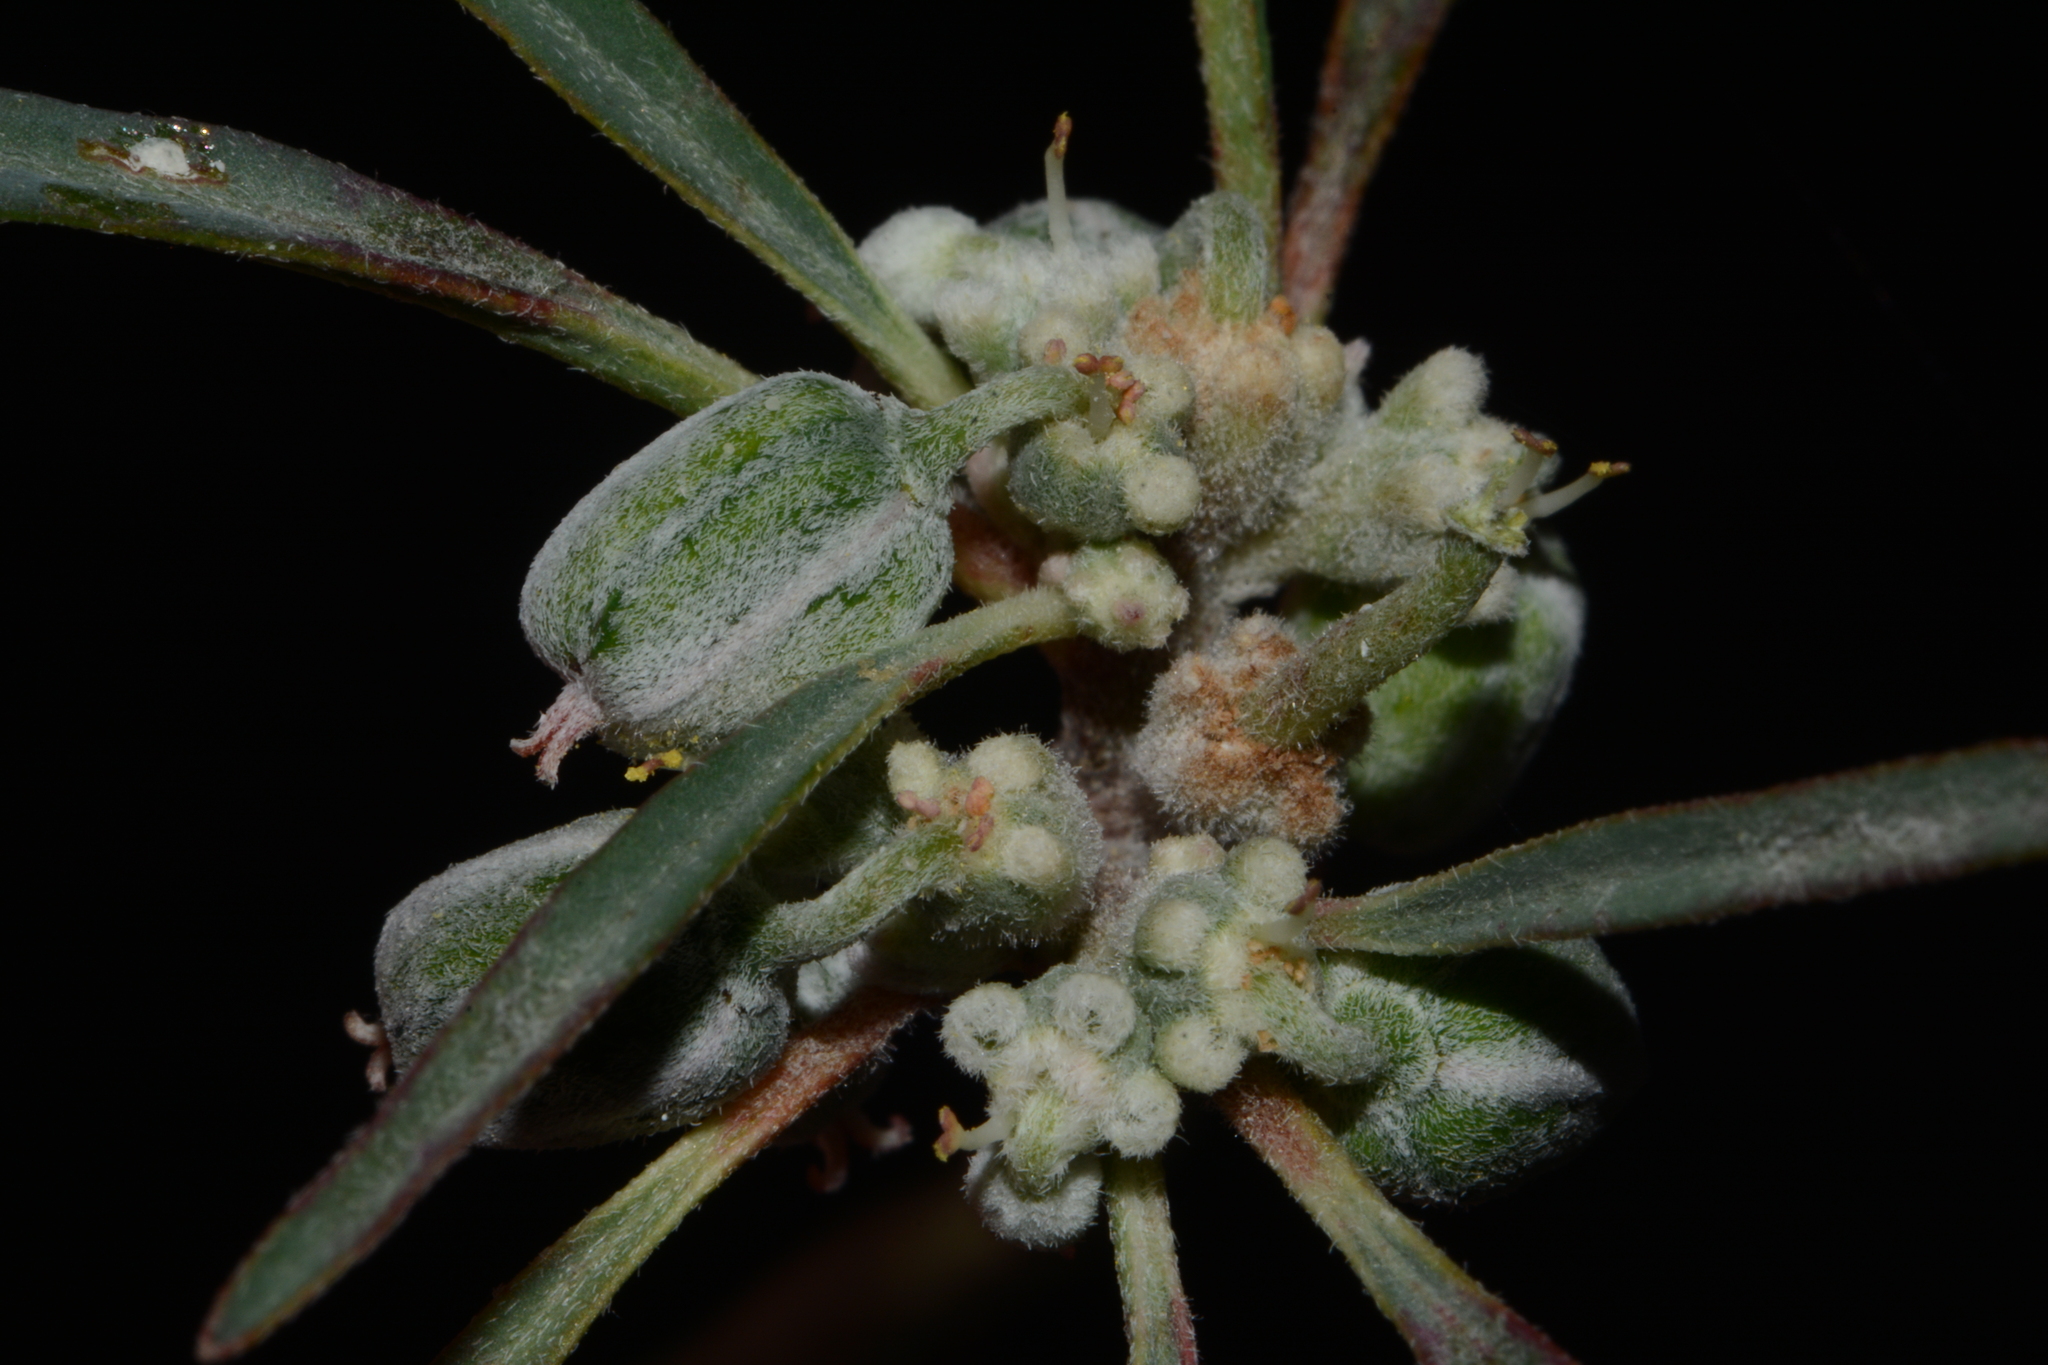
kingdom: Plantae
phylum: Tracheophyta
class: Magnoliopsida
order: Malpighiales
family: Euphorbiaceae
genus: Euphorbia
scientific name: Euphorbia eriantha
